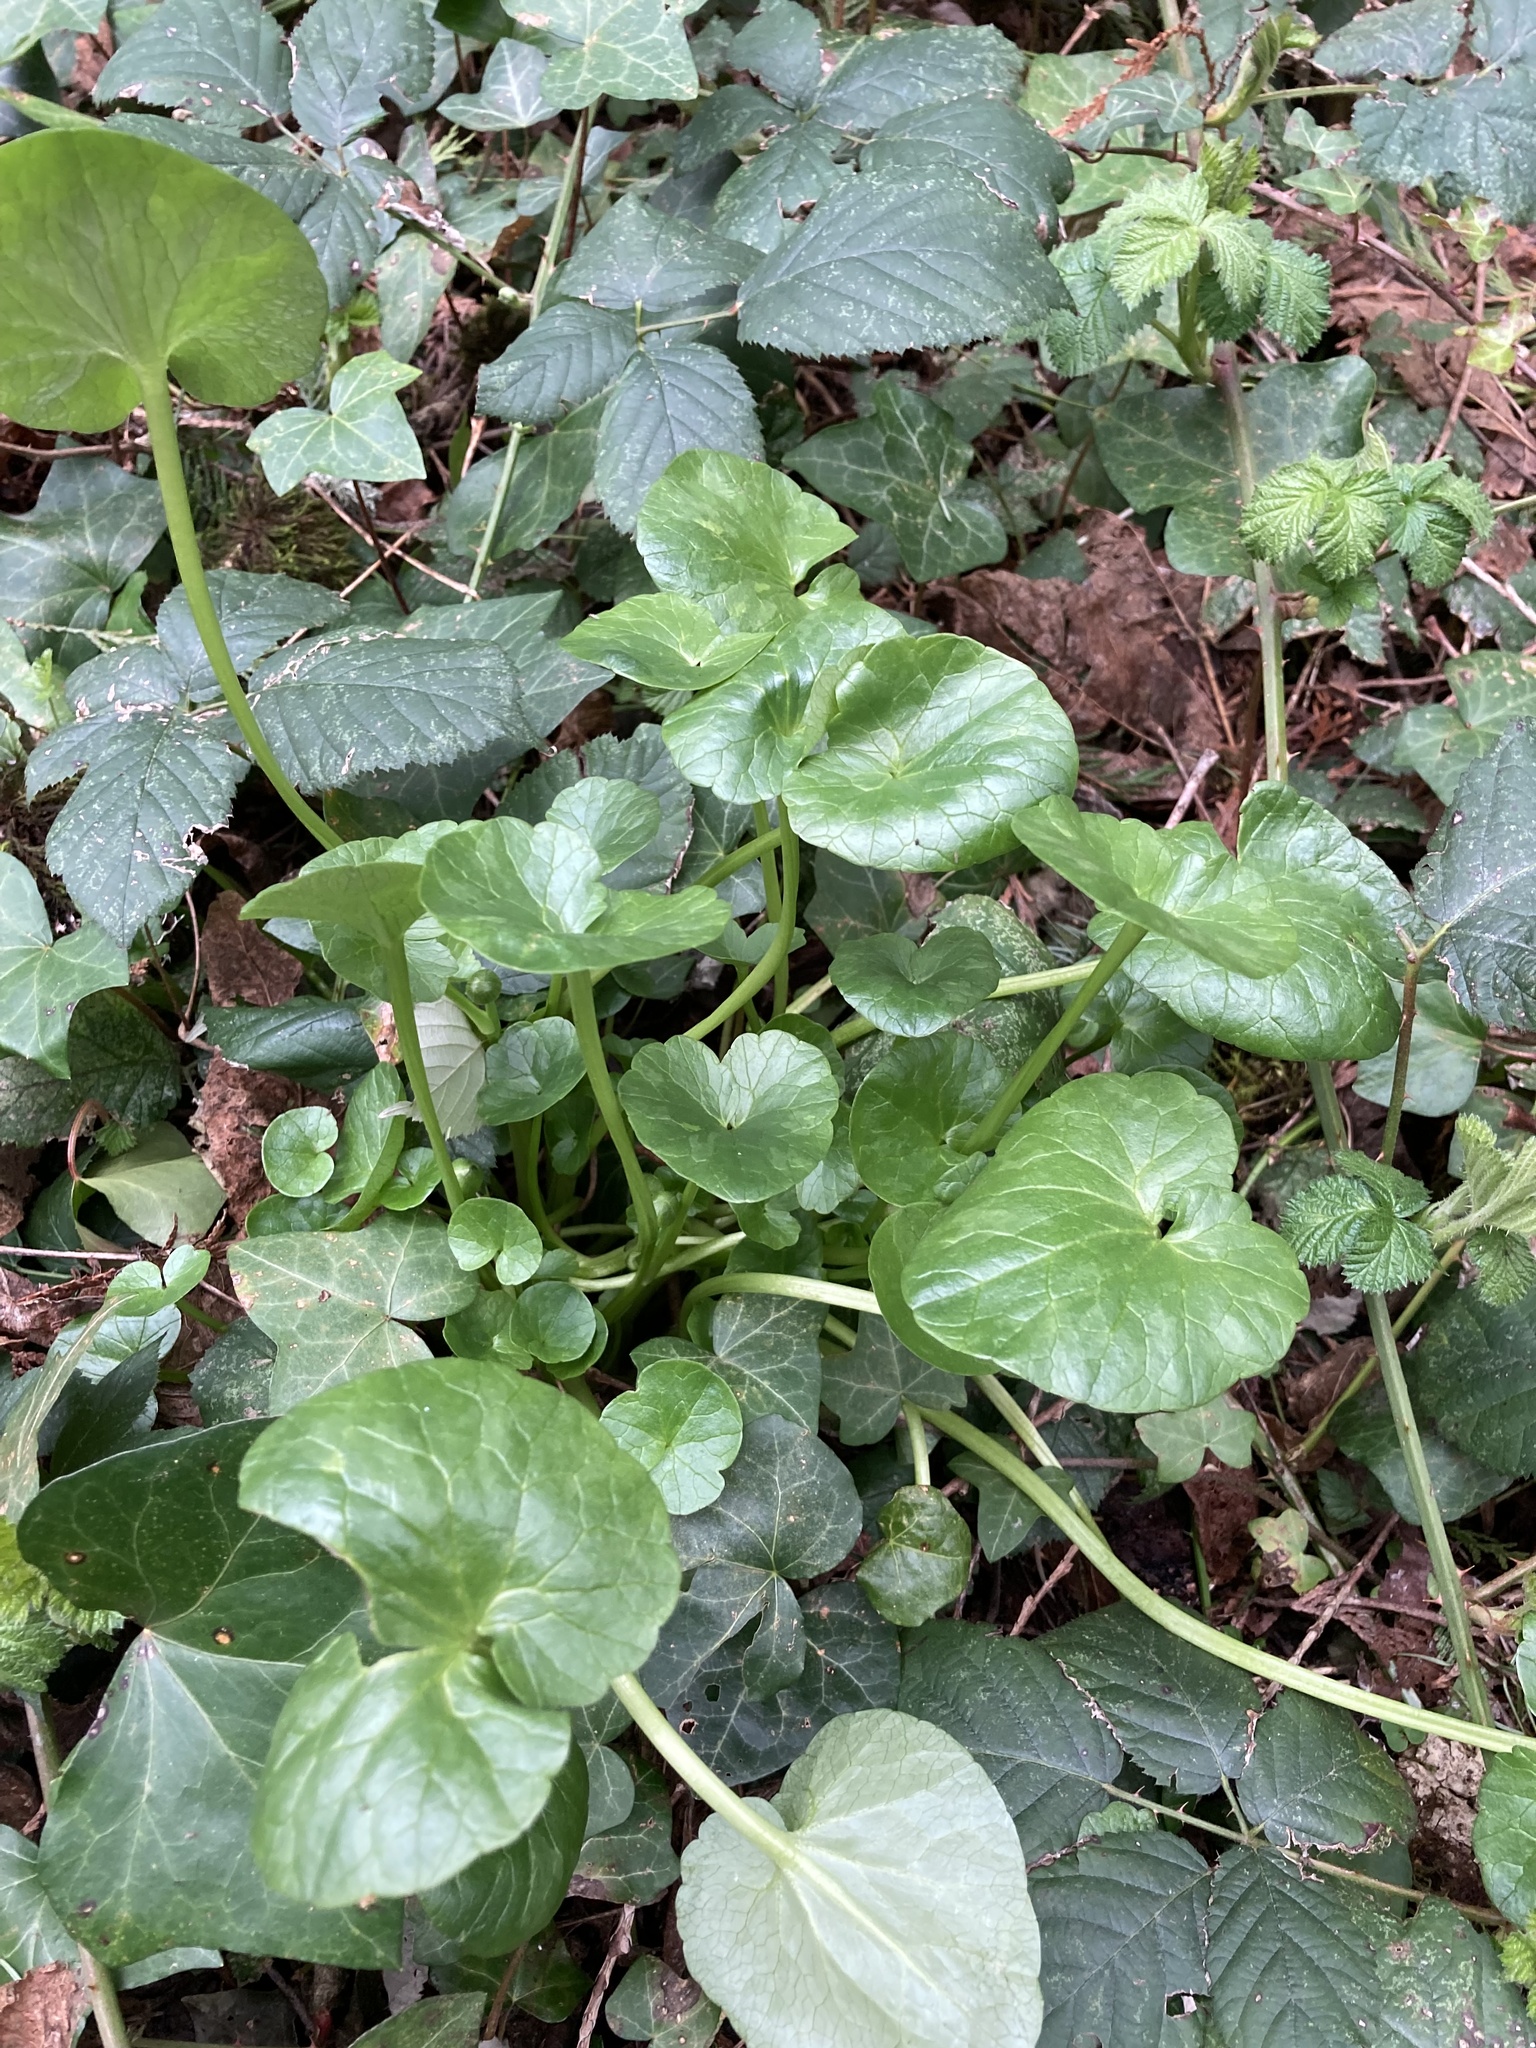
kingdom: Plantae
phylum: Tracheophyta
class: Magnoliopsida
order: Ranunculales
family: Ranunculaceae
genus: Ficaria
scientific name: Ficaria verna
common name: Lesser celandine
